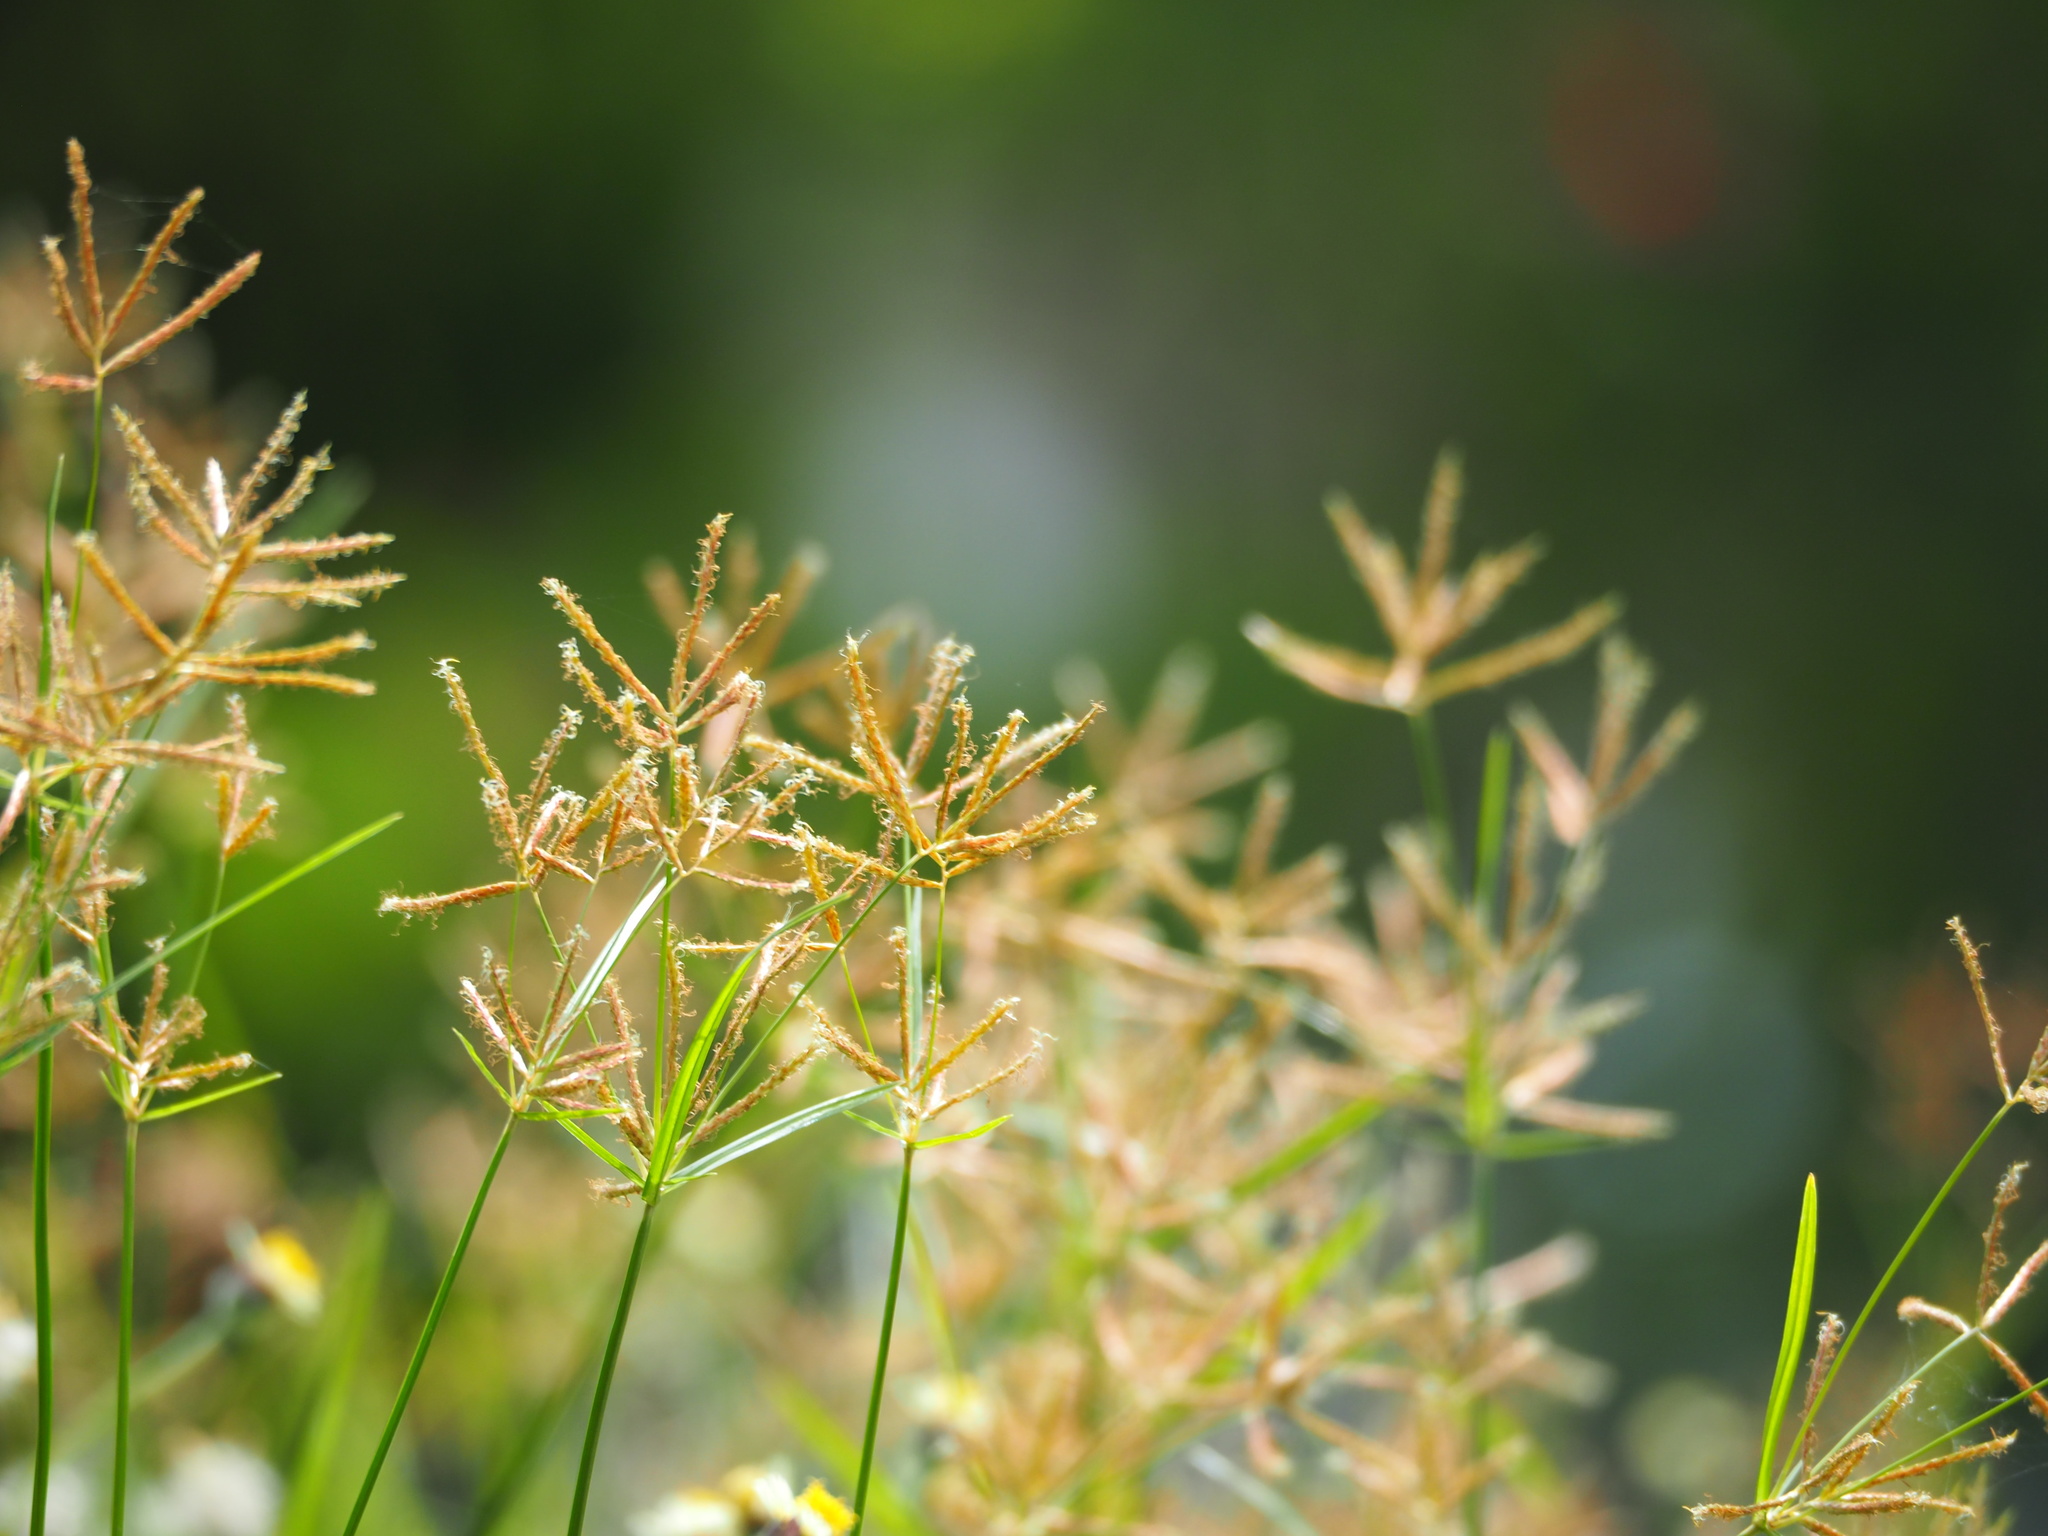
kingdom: Plantae
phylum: Tracheophyta
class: Liliopsida
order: Poales
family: Cyperaceae
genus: Cyperus
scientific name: Cyperus rotundus
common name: Nutgrass
